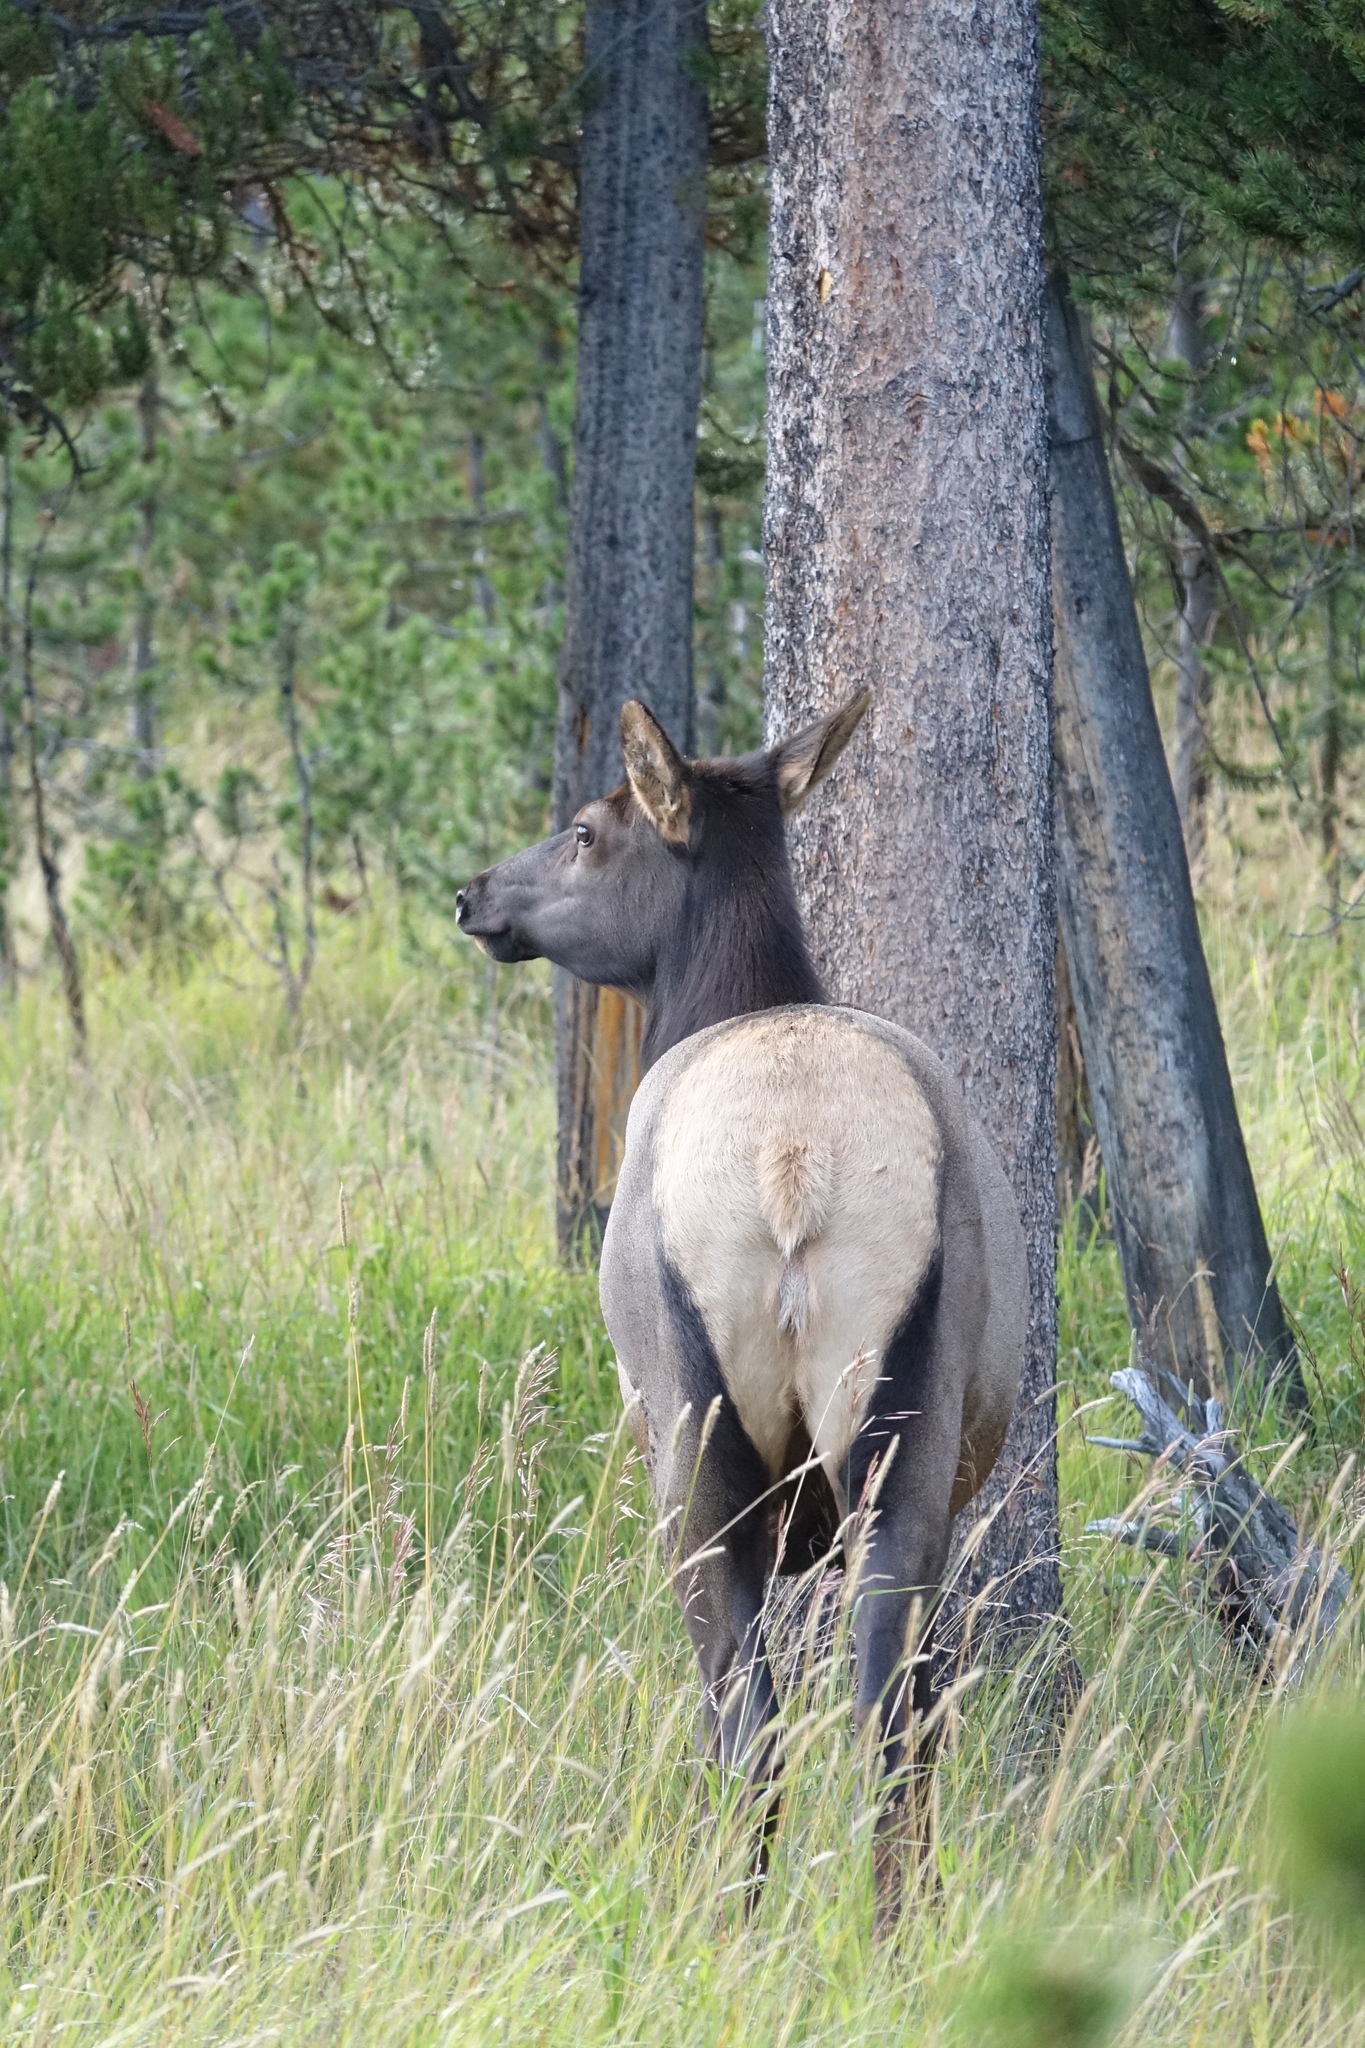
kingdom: Animalia
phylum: Chordata
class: Mammalia
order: Artiodactyla
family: Cervidae
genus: Cervus
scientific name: Cervus elaphus
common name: Red deer
